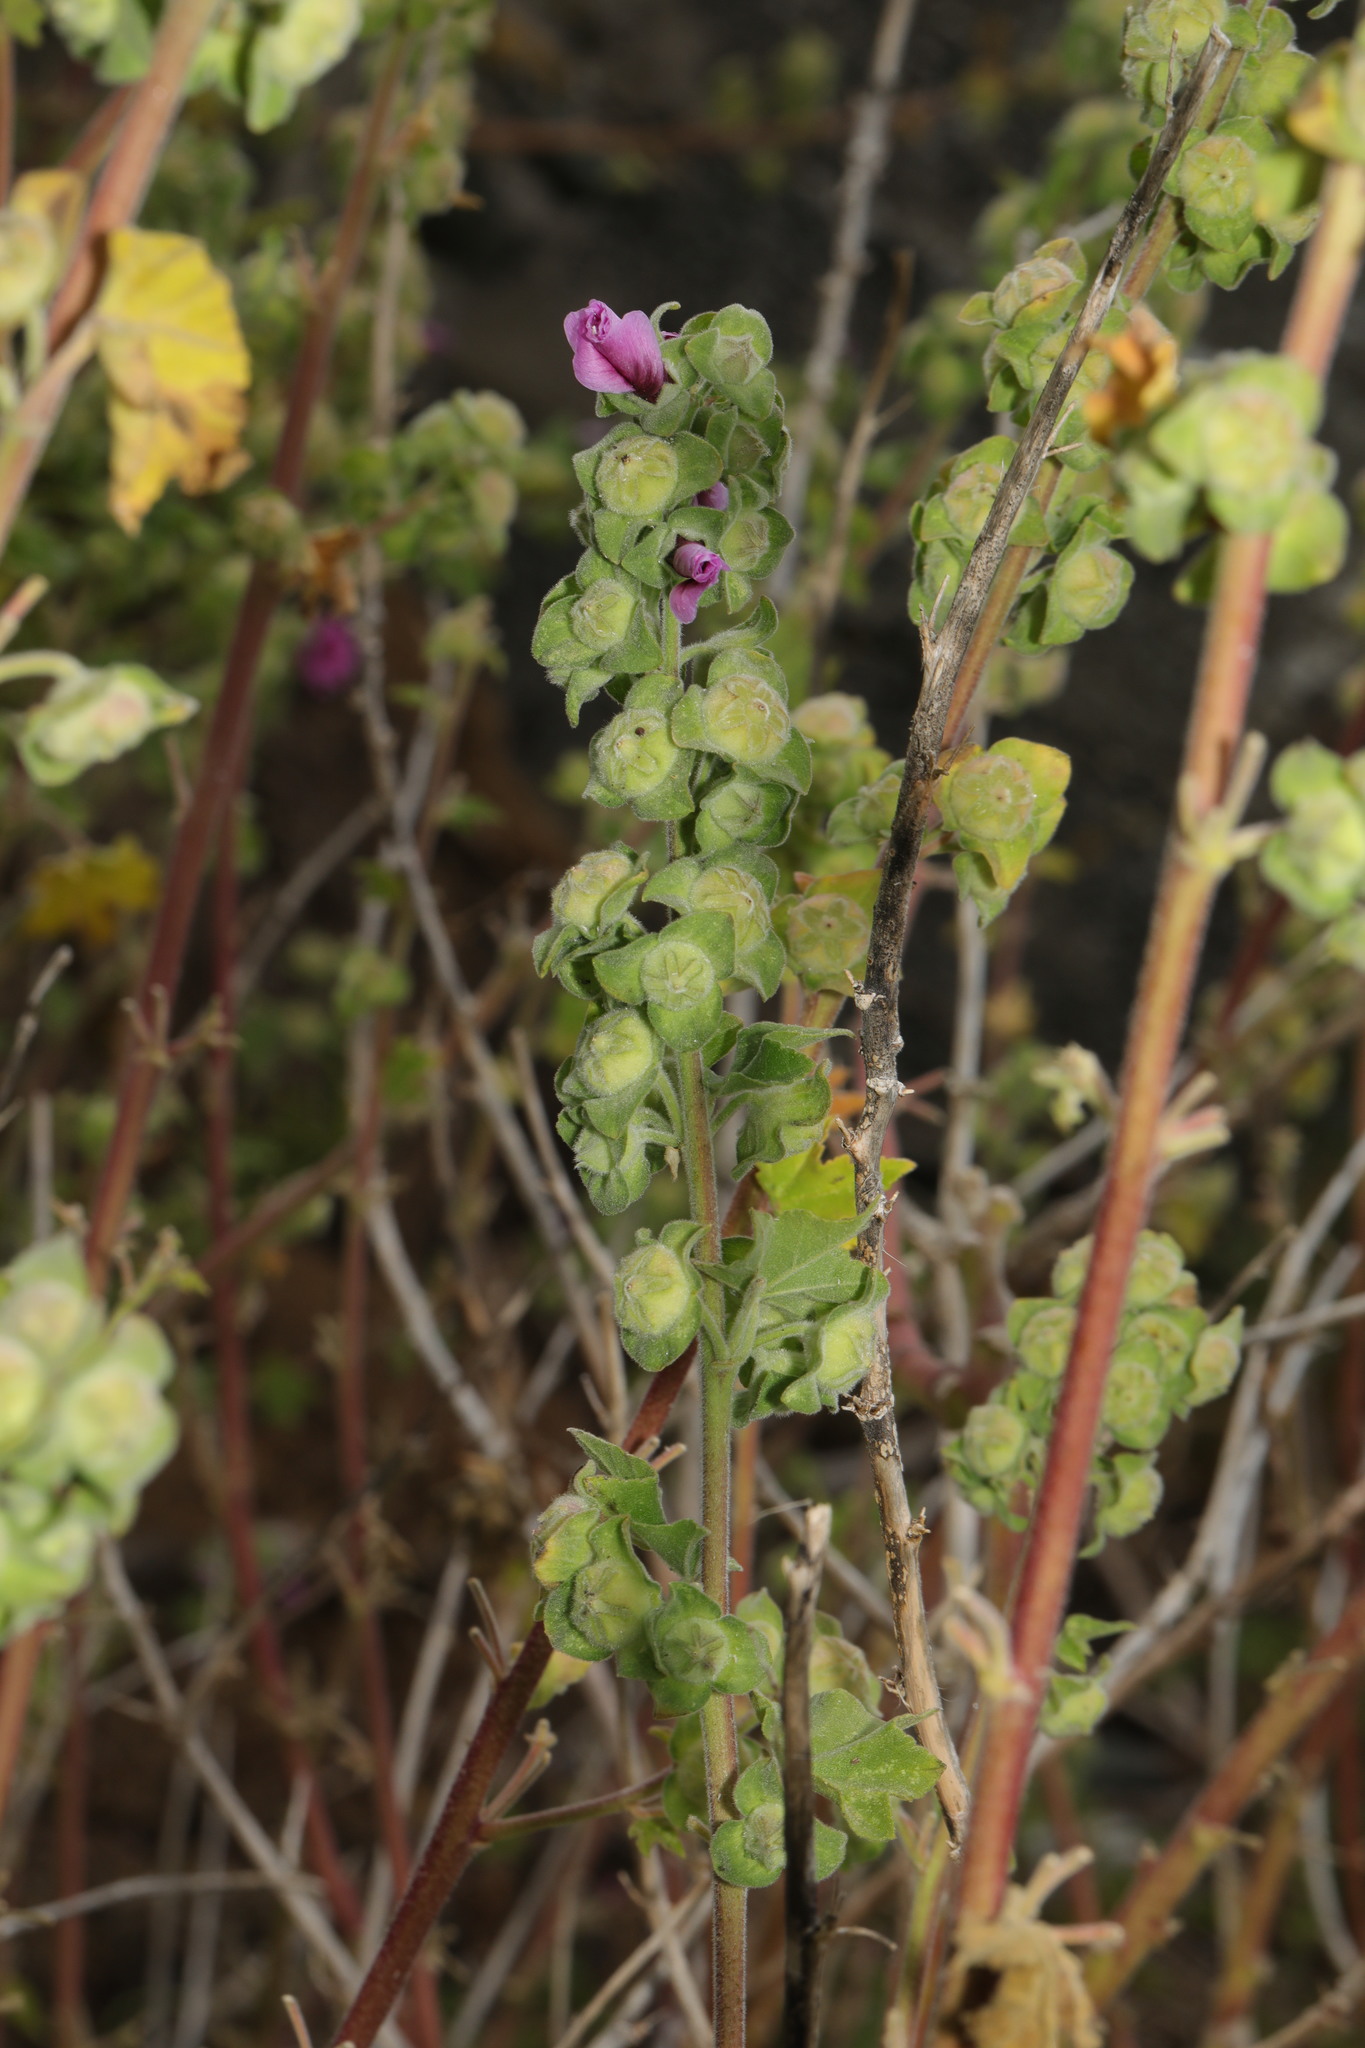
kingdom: Plantae
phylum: Tracheophyta
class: Magnoliopsida
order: Malvales
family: Malvaceae
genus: Malva
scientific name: Malva arborea
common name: Tree mallow
